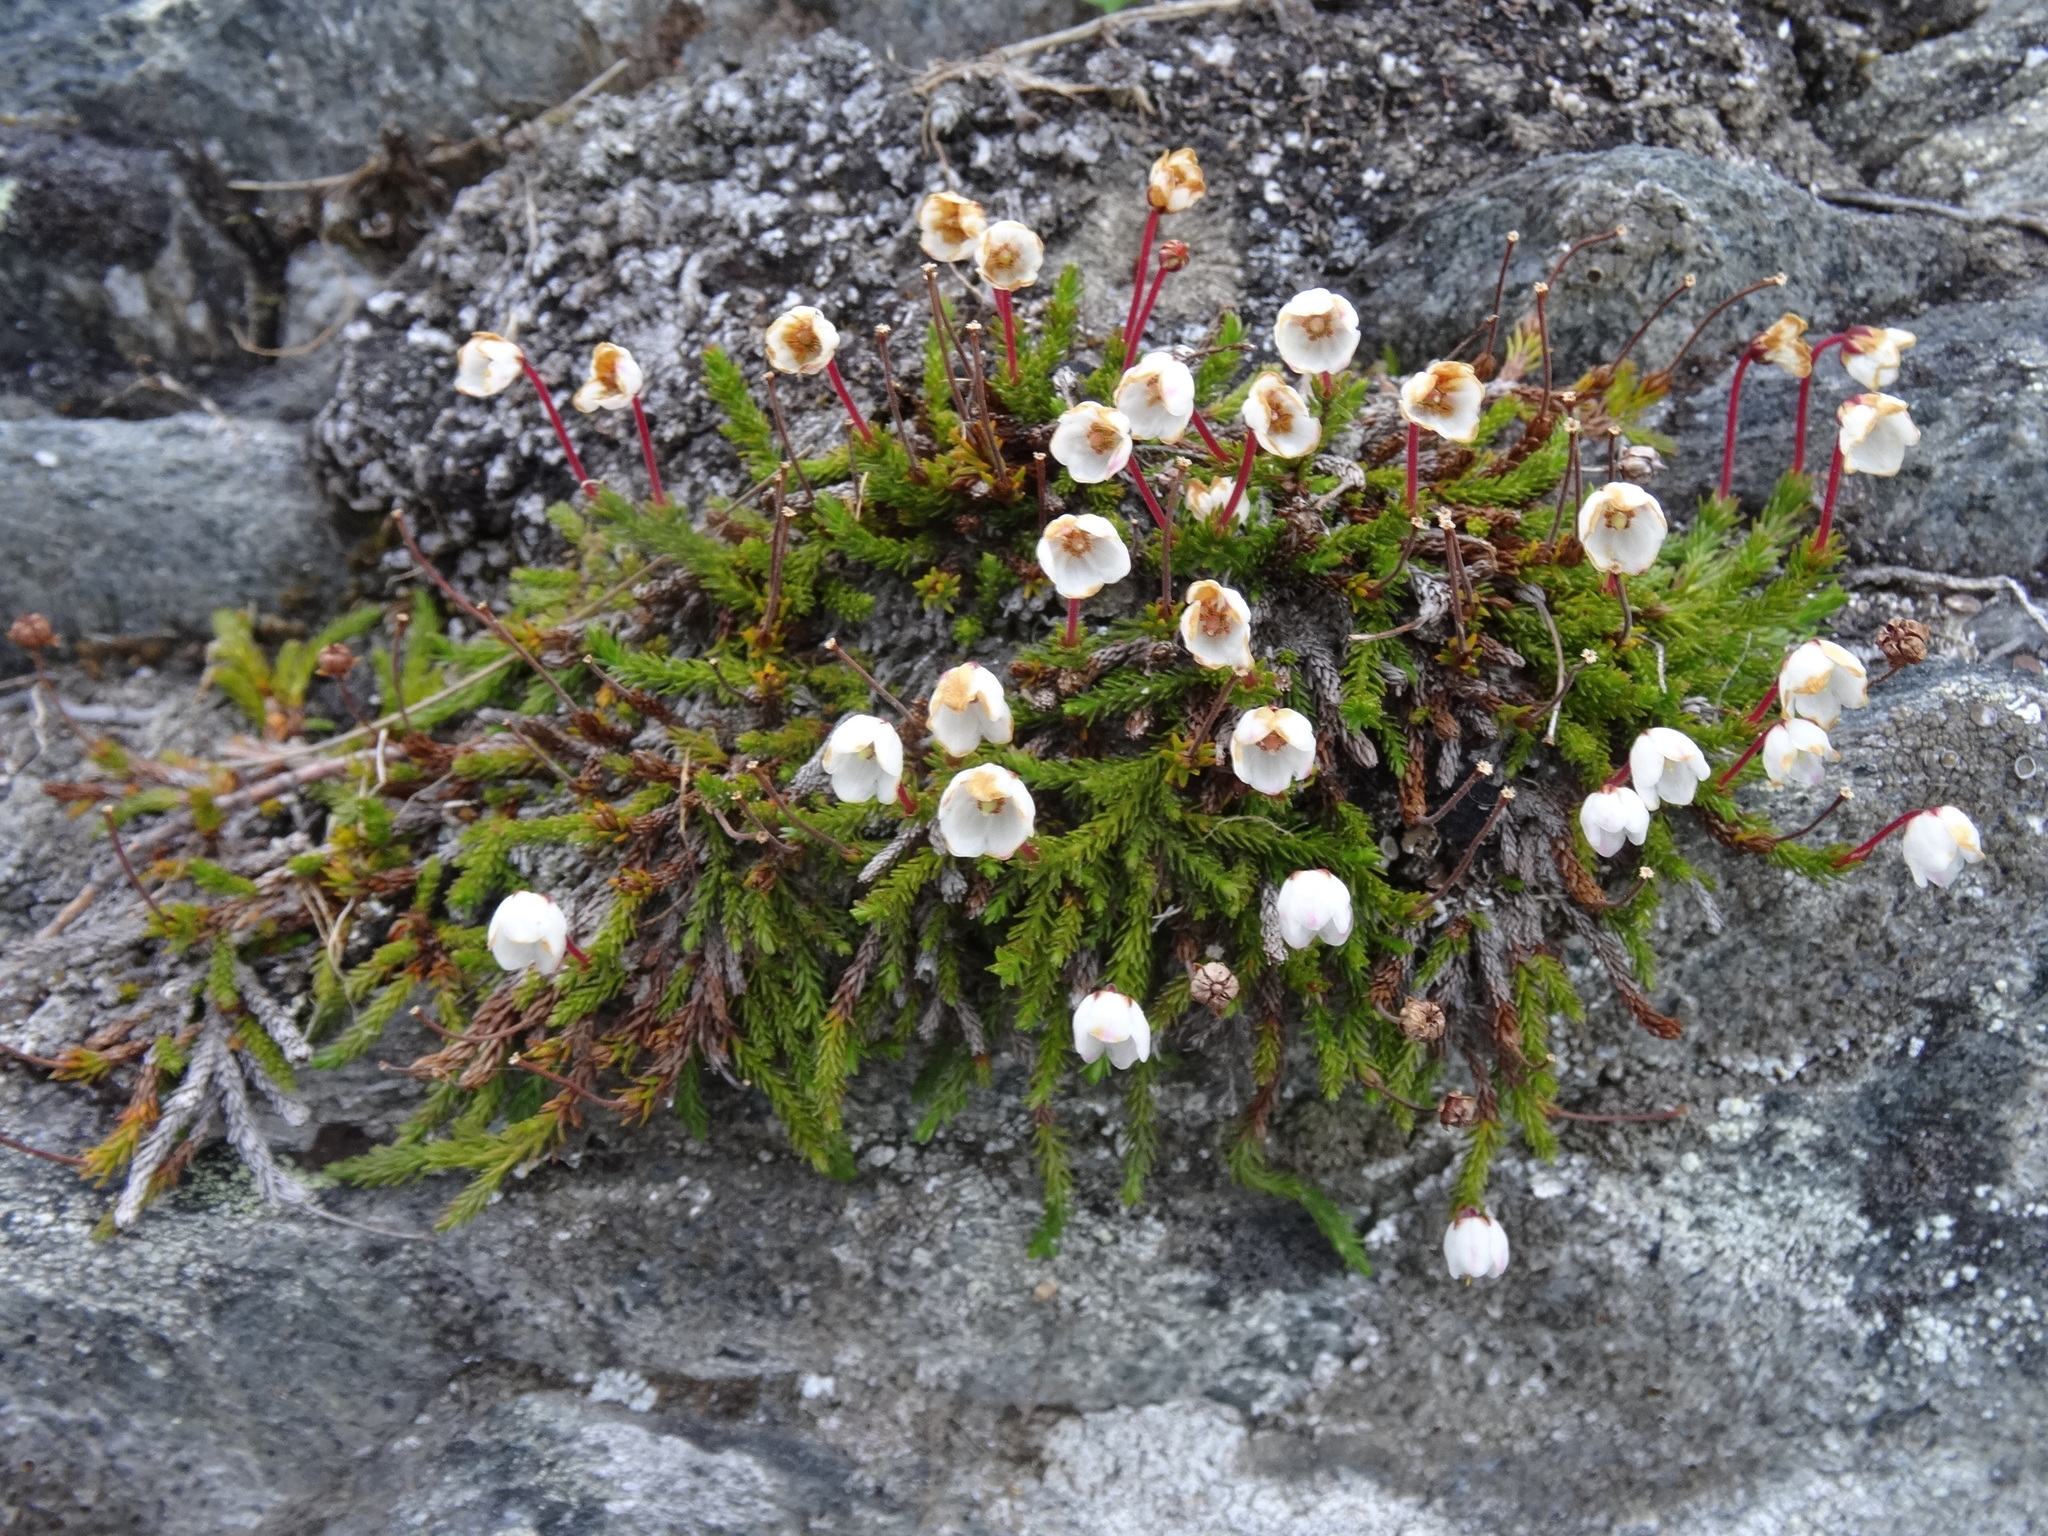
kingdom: Plantae
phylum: Tracheophyta
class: Magnoliopsida
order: Ericales
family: Ericaceae
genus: Cassiope
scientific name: Cassiope tetragona
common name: Arctic bell heather
